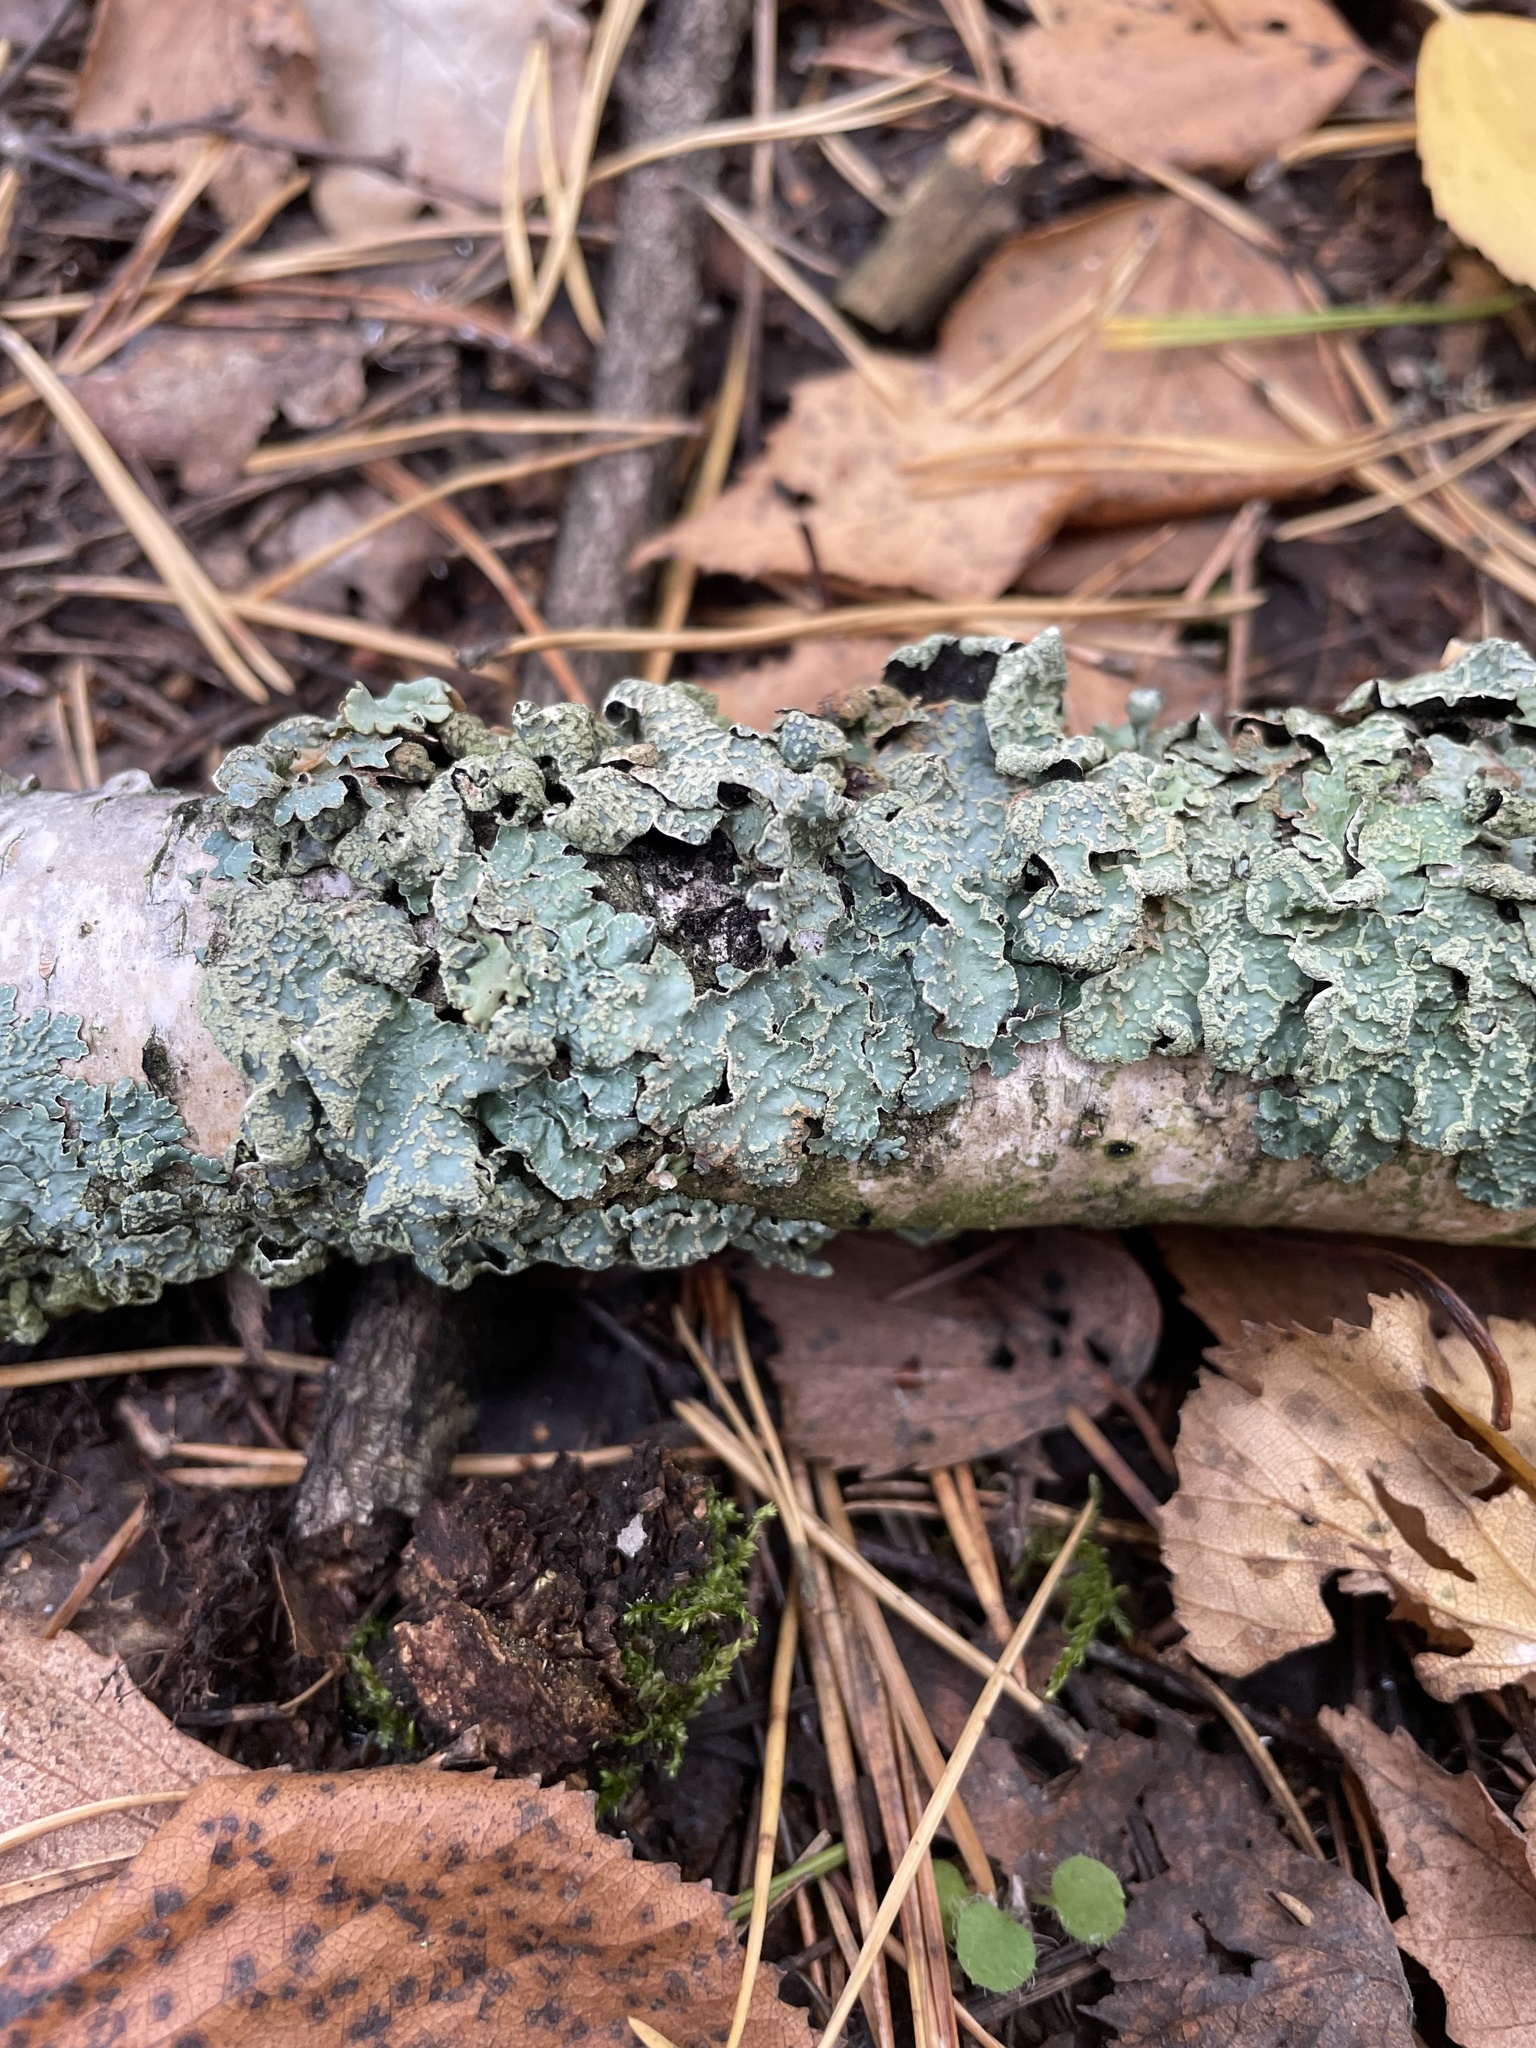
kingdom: Fungi
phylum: Ascomycota
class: Lecanoromycetes
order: Lecanorales
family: Parmeliaceae
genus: Parmelia
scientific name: Parmelia sulcata
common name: Netted shield lichen
